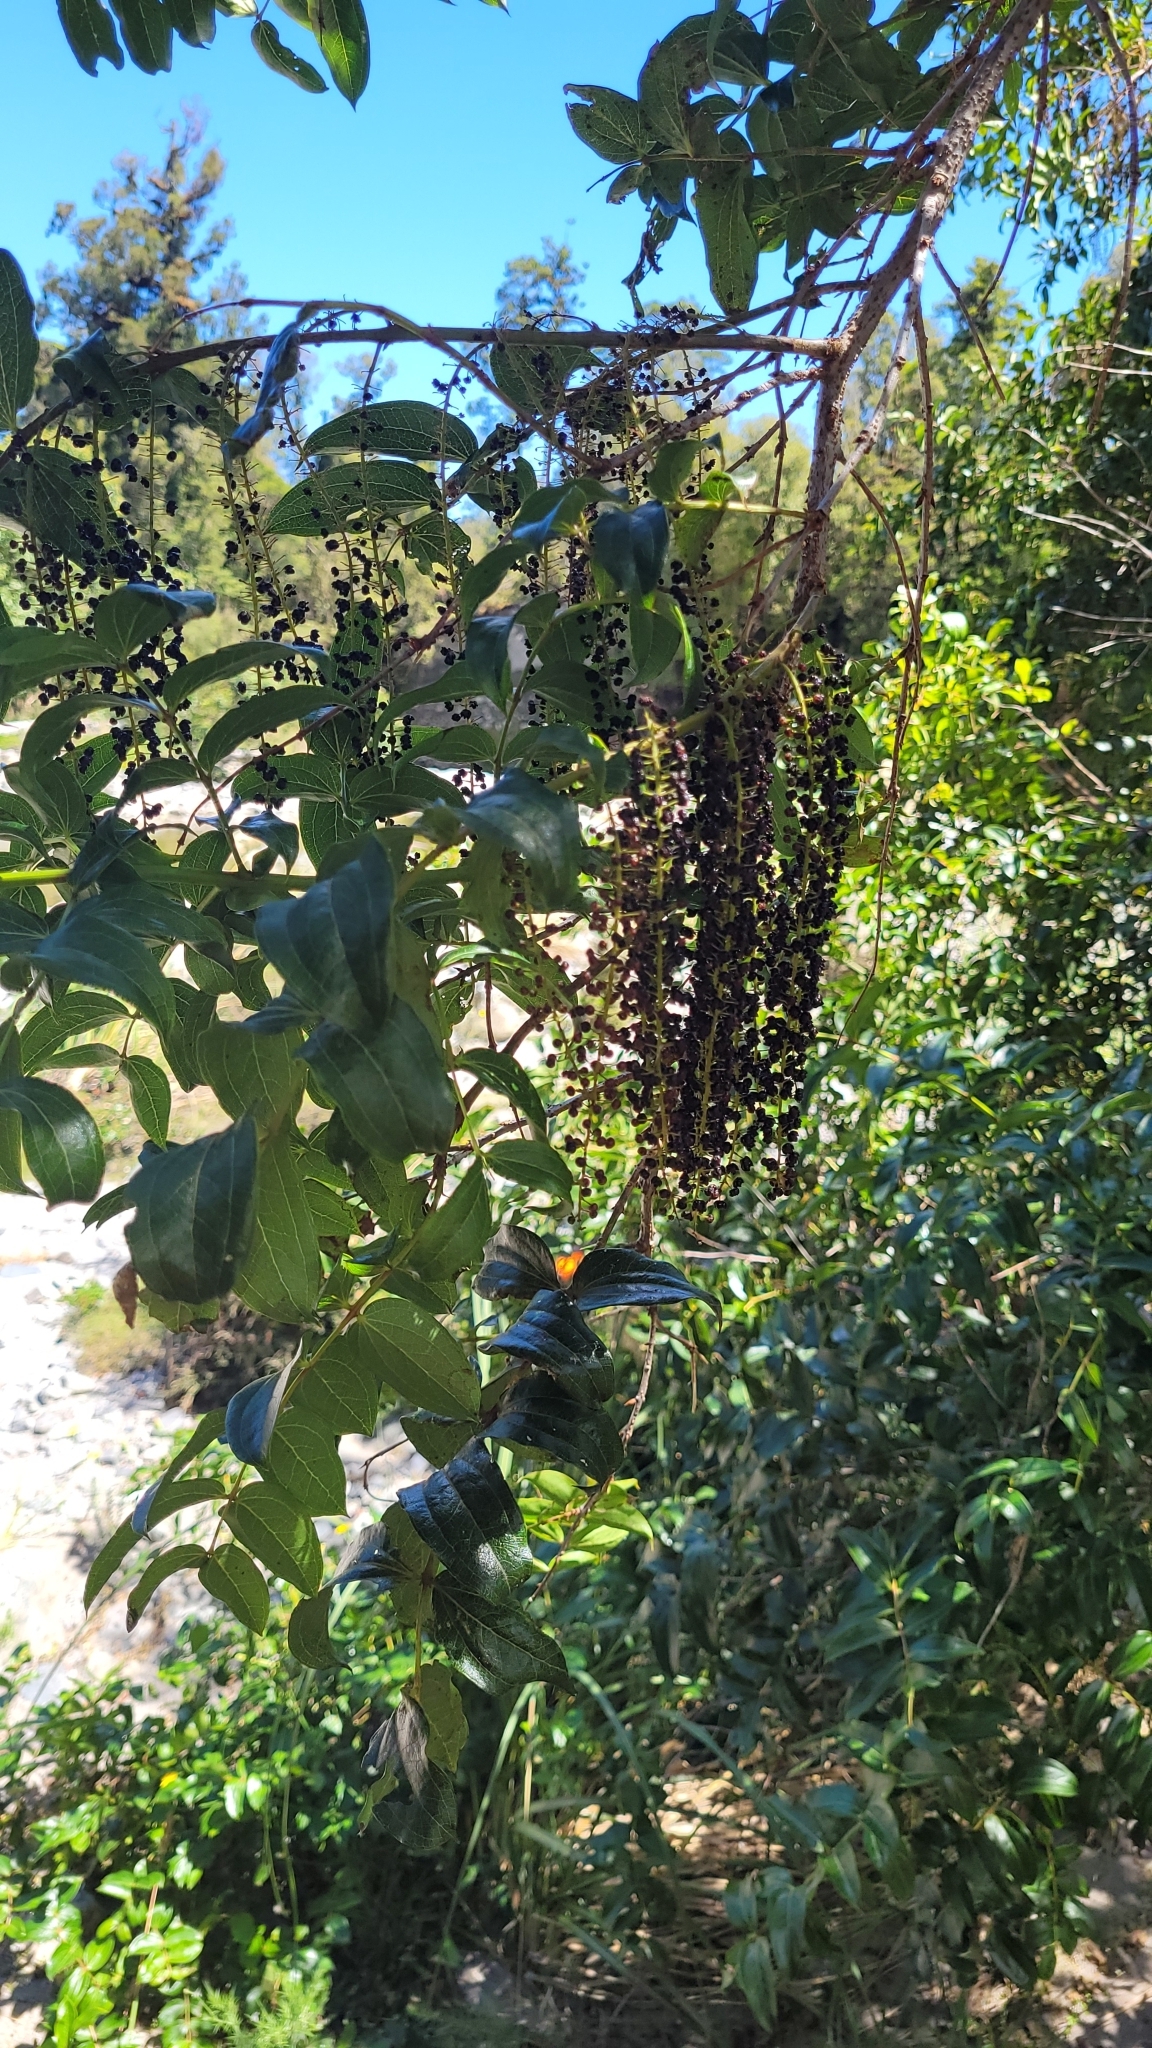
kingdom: Plantae
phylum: Tracheophyta
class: Magnoliopsida
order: Cucurbitales
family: Coriariaceae
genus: Coriaria
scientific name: Coriaria arborea
